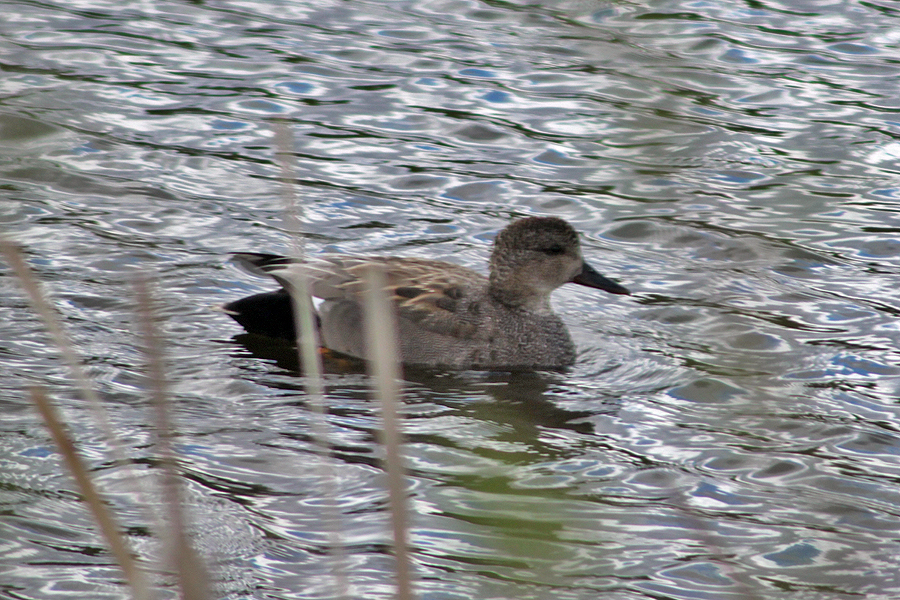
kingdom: Animalia
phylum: Chordata
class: Aves
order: Anseriformes
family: Anatidae
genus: Mareca
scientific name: Mareca strepera
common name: Gadwall
